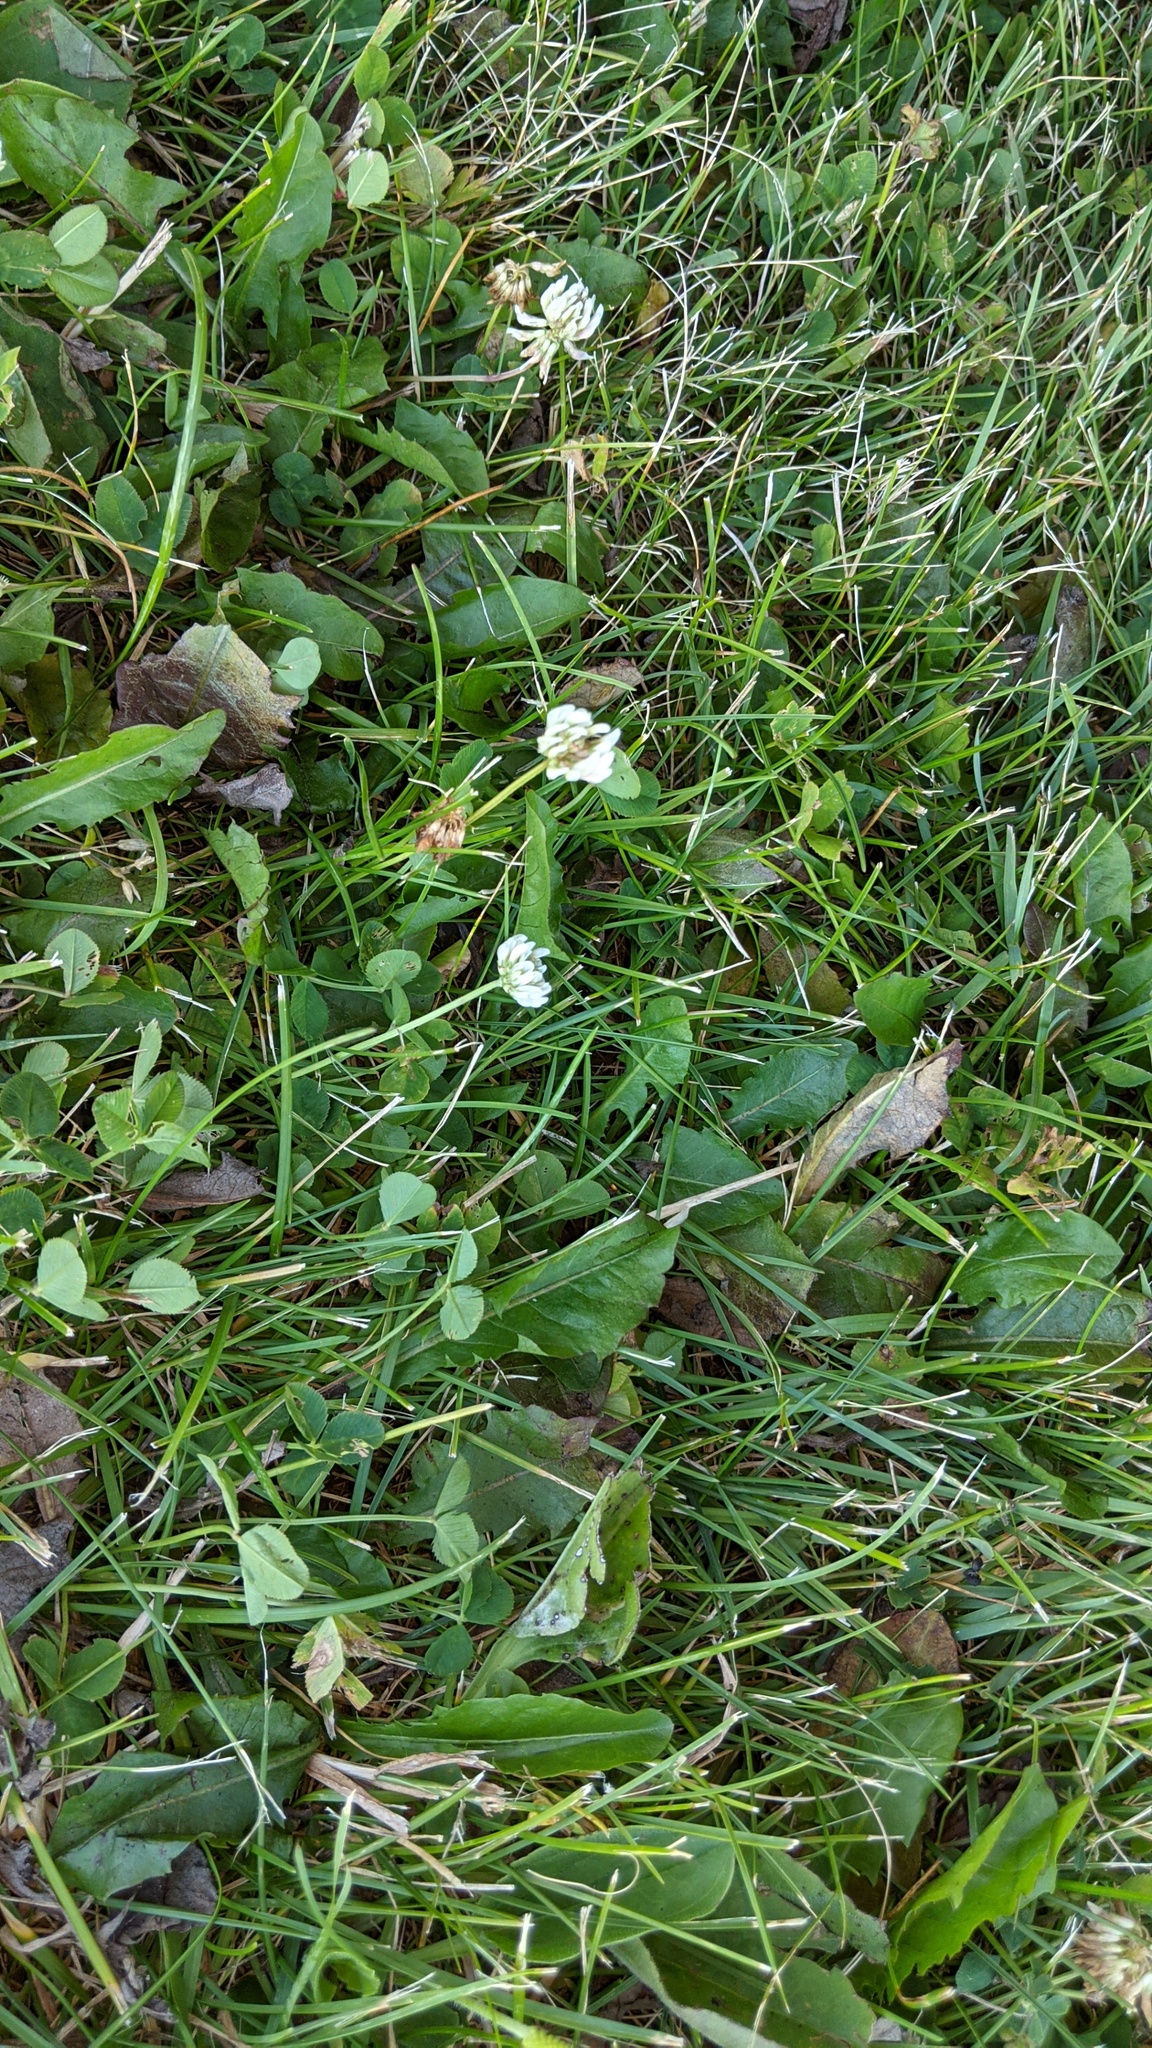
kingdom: Plantae
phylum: Tracheophyta
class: Magnoliopsida
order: Fabales
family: Fabaceae
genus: Trifolium
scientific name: Trifolium repens
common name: White clover
